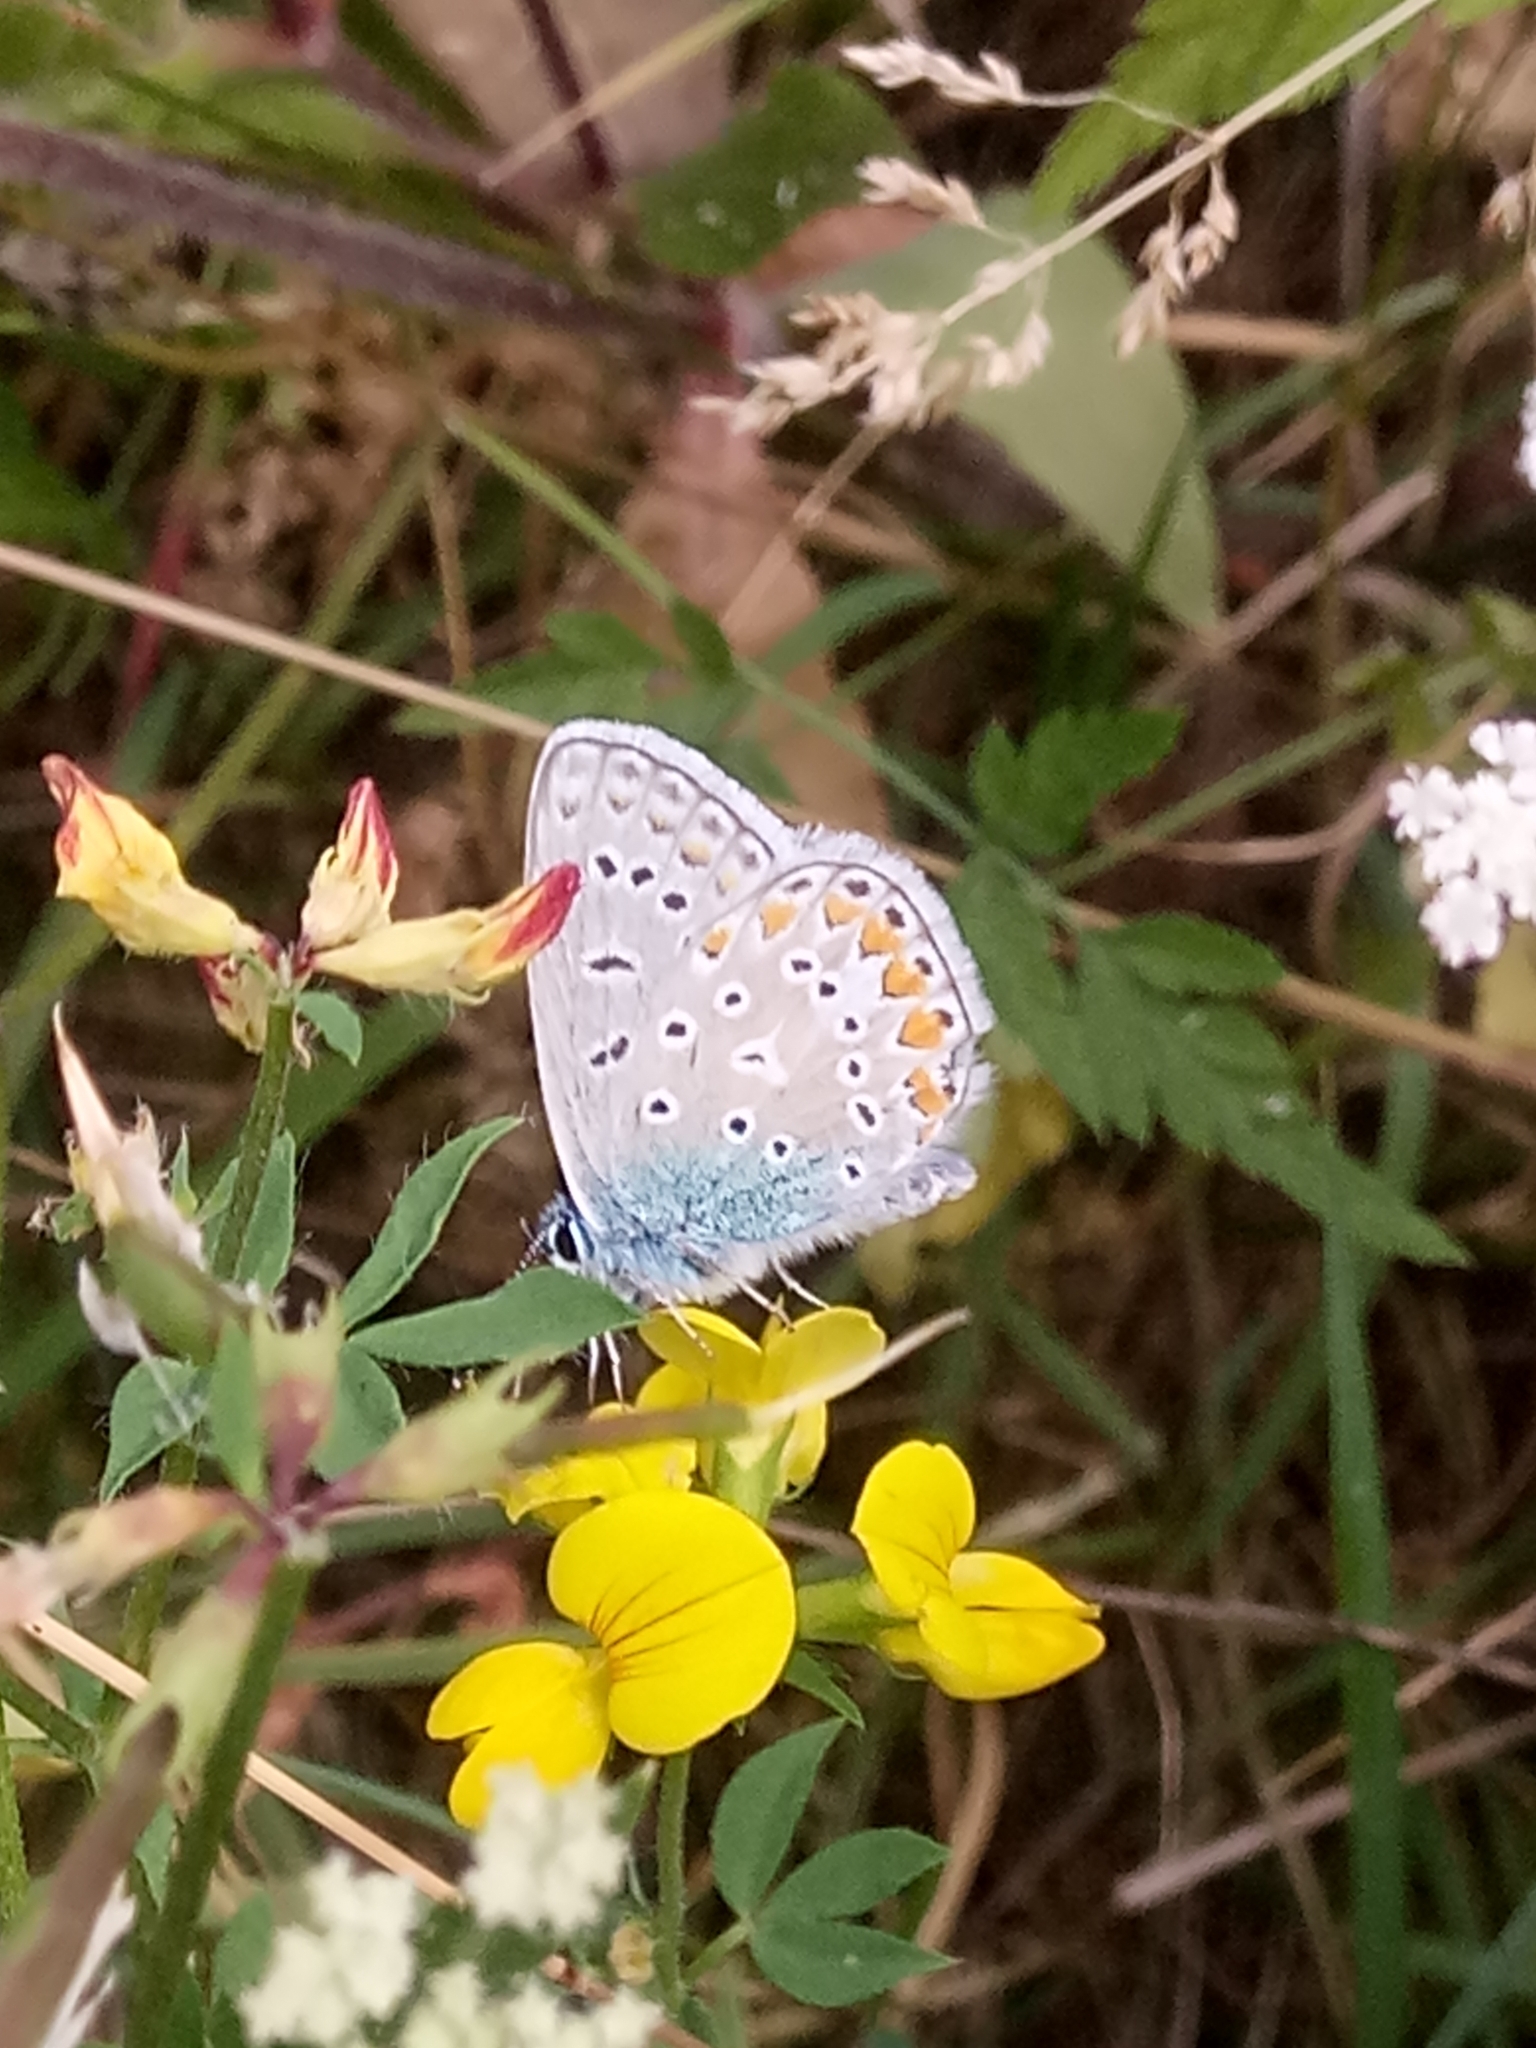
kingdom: Animalia
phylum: Arthropoda
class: Insecta
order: Lepidoptera
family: Lycaenidae
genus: Polyommatus
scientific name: Polyommatus icarus
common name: Common blue
